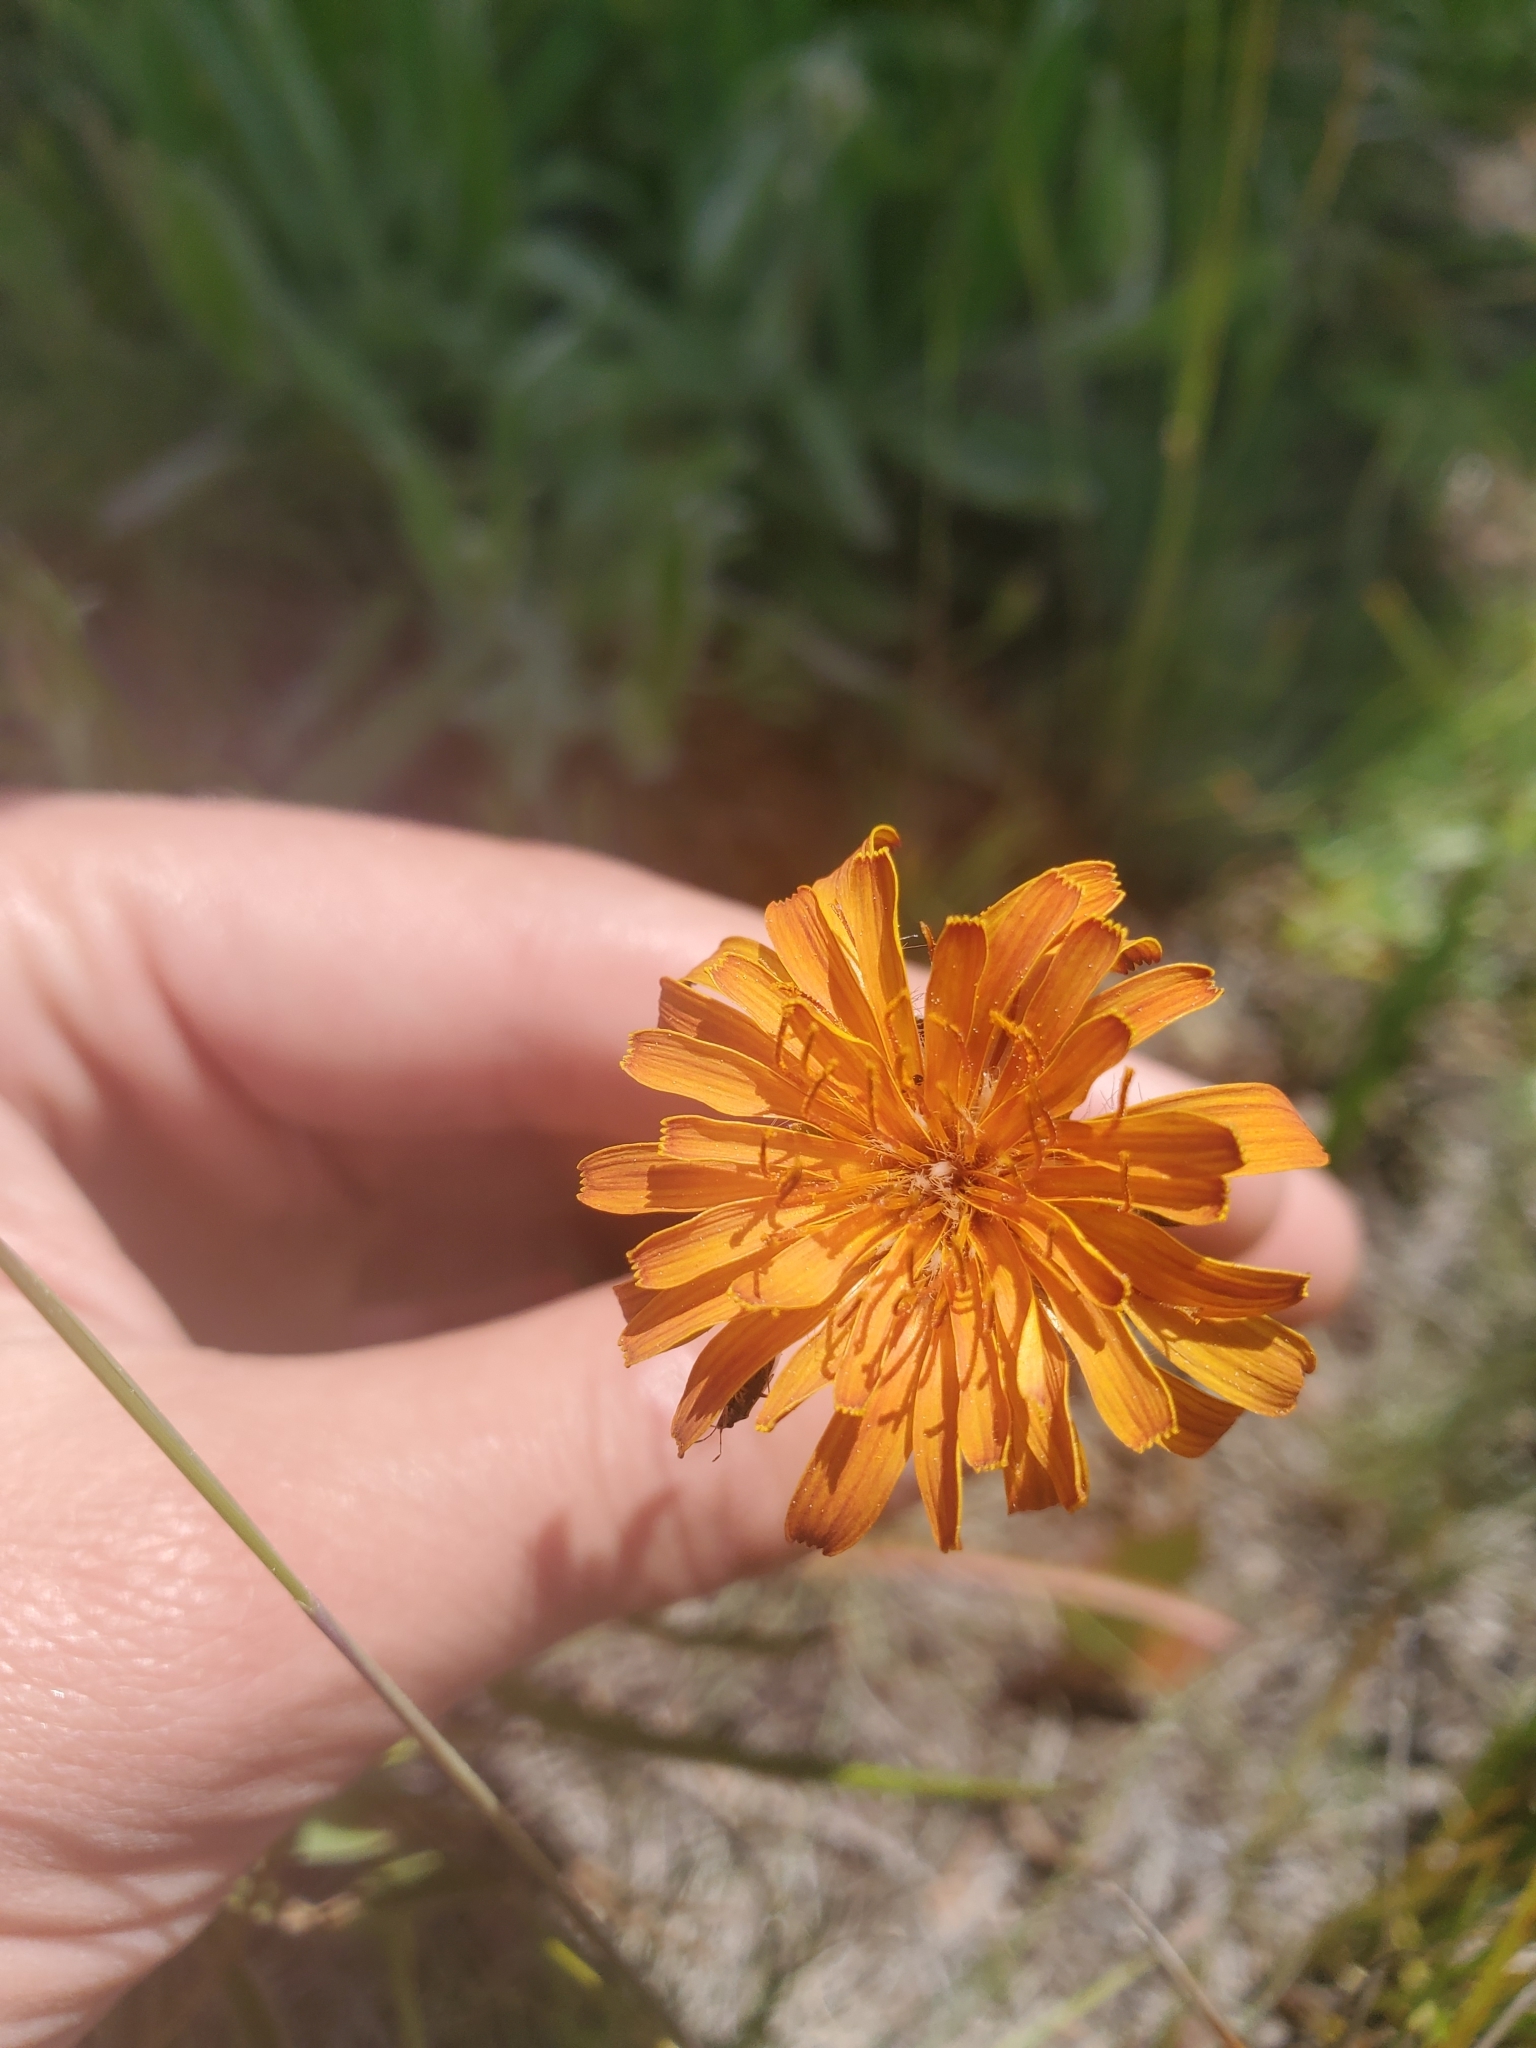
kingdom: Plantae
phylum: Tracheophyta
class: Magnoliopsida
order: Asterales
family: Asteraceae
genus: Agoseris
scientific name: Agoseris aurantiaca
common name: Mountain agoseris
